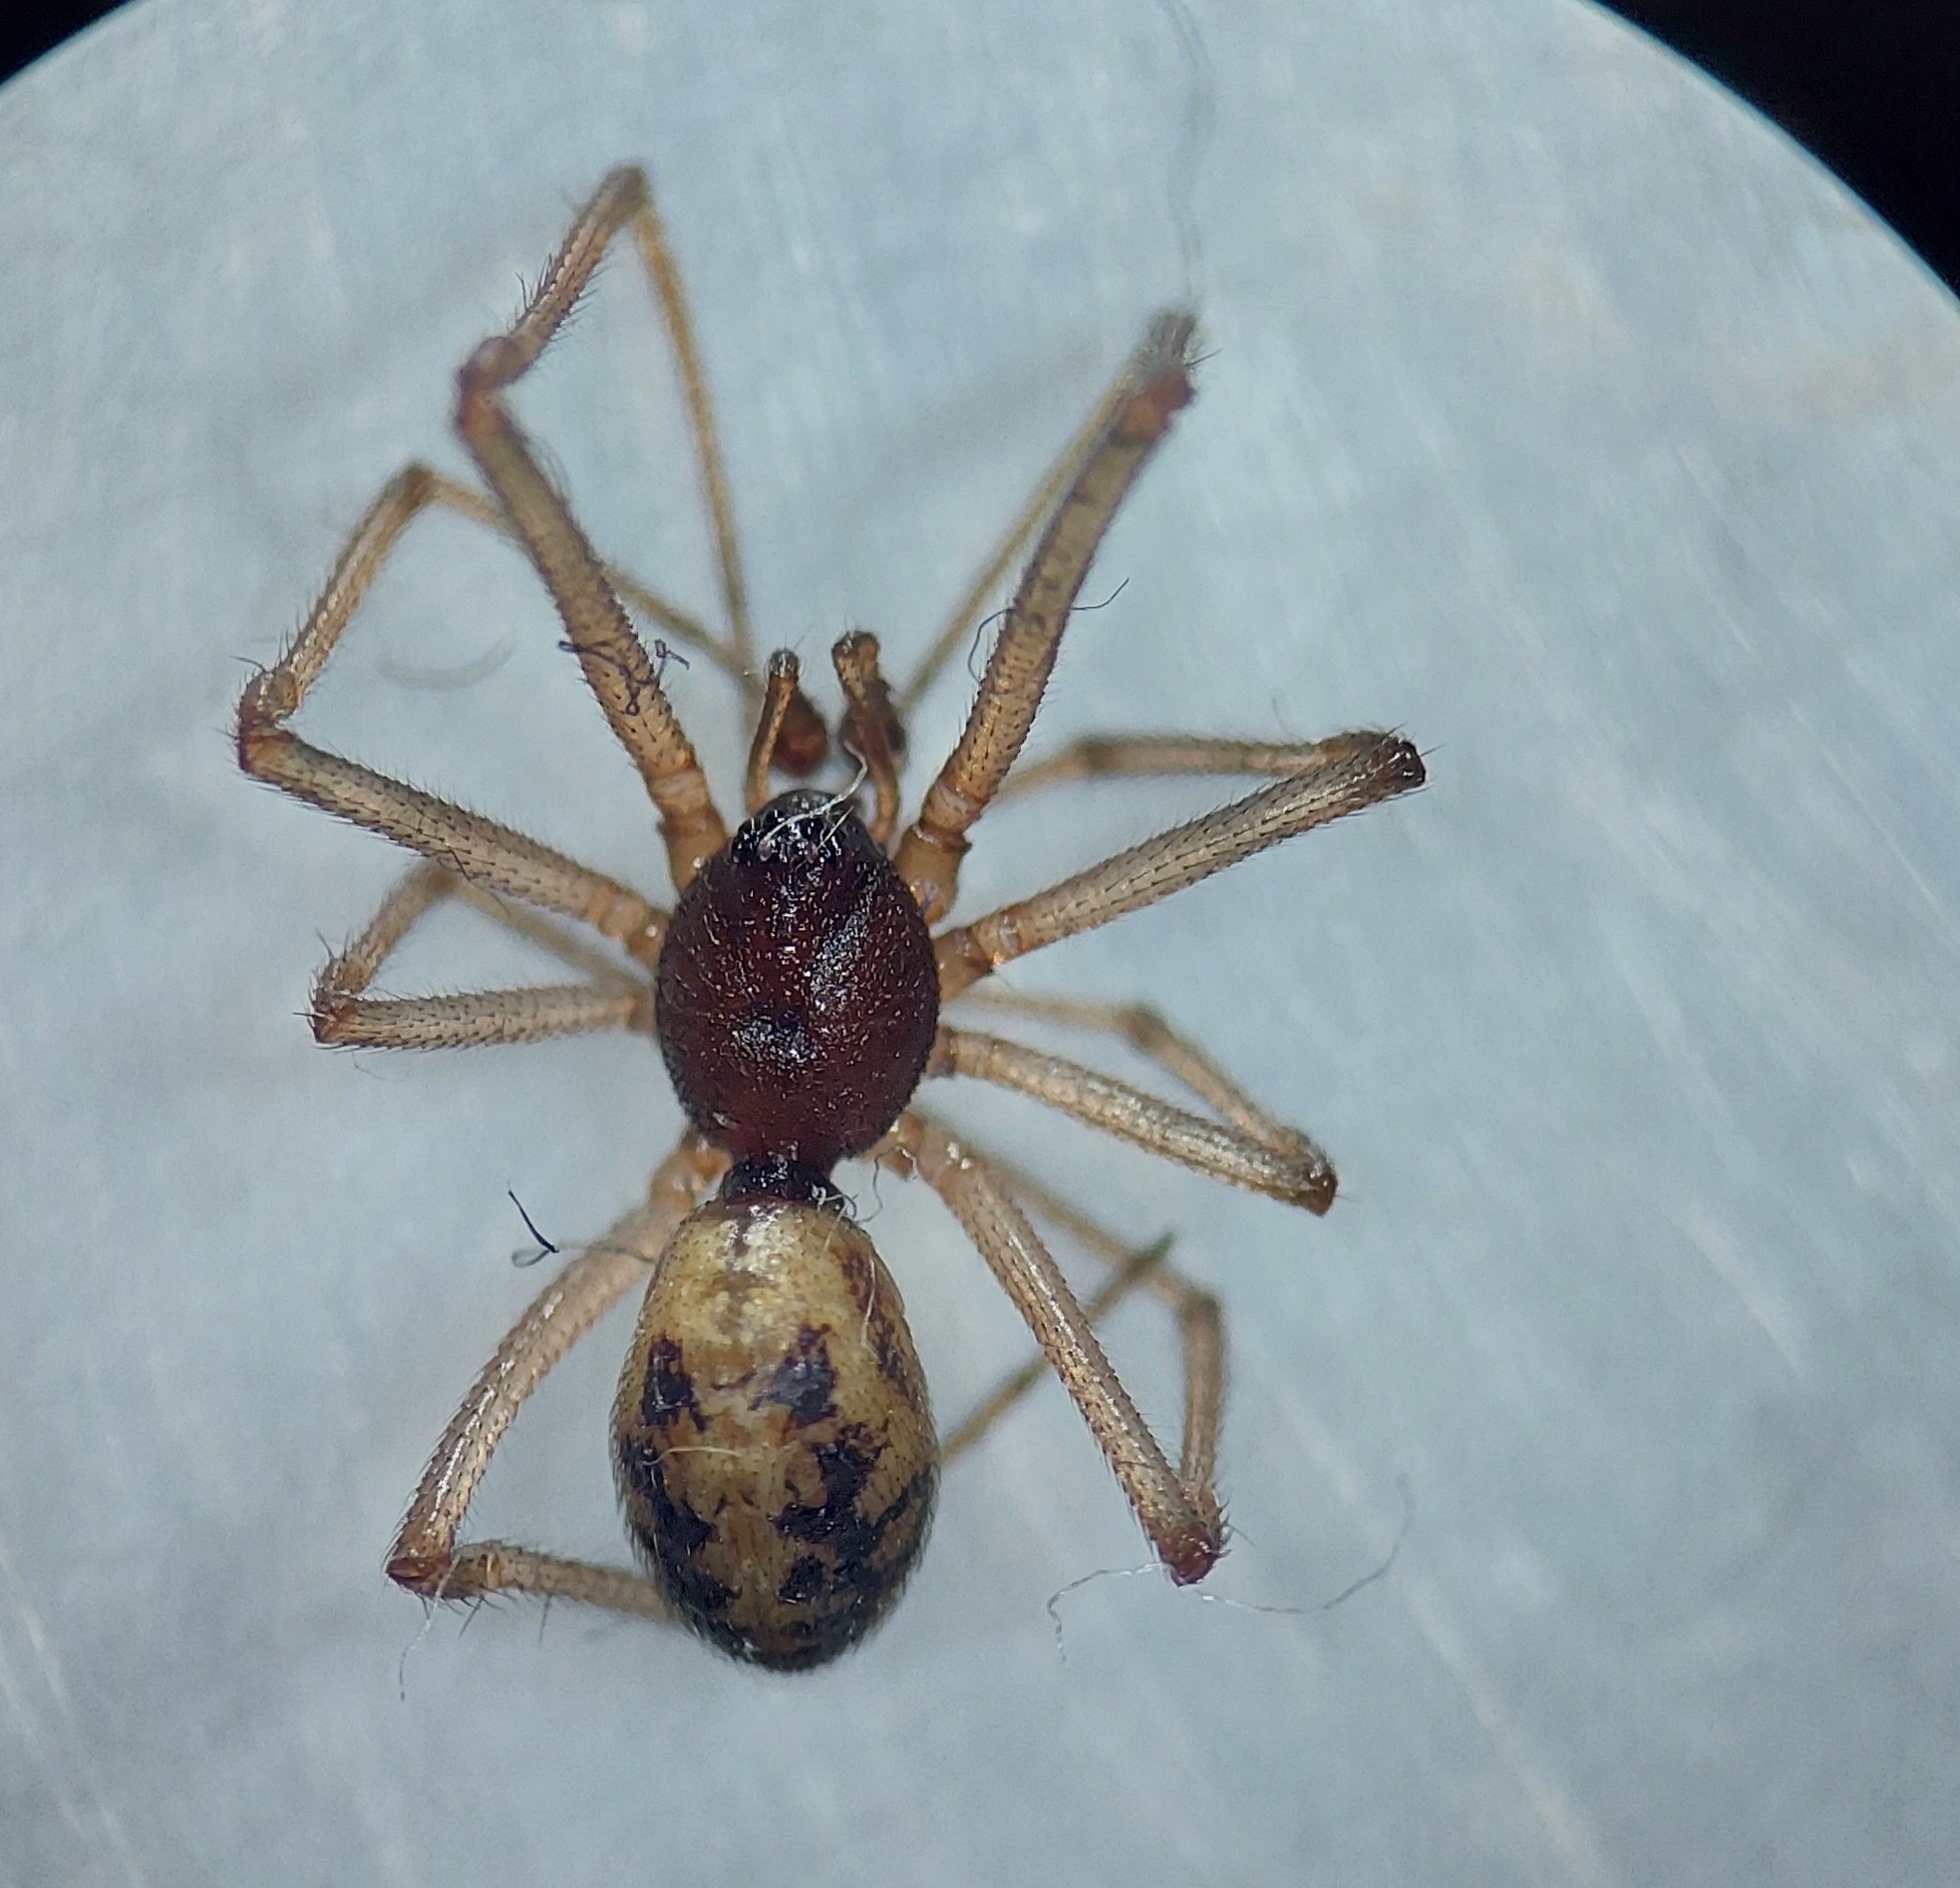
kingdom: Animalia
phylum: Arthropoda
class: Arachnida
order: Araneae
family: Theridiidae
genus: Steatoda
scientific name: Steatoda triangulosa
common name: Triangulate bud spider
